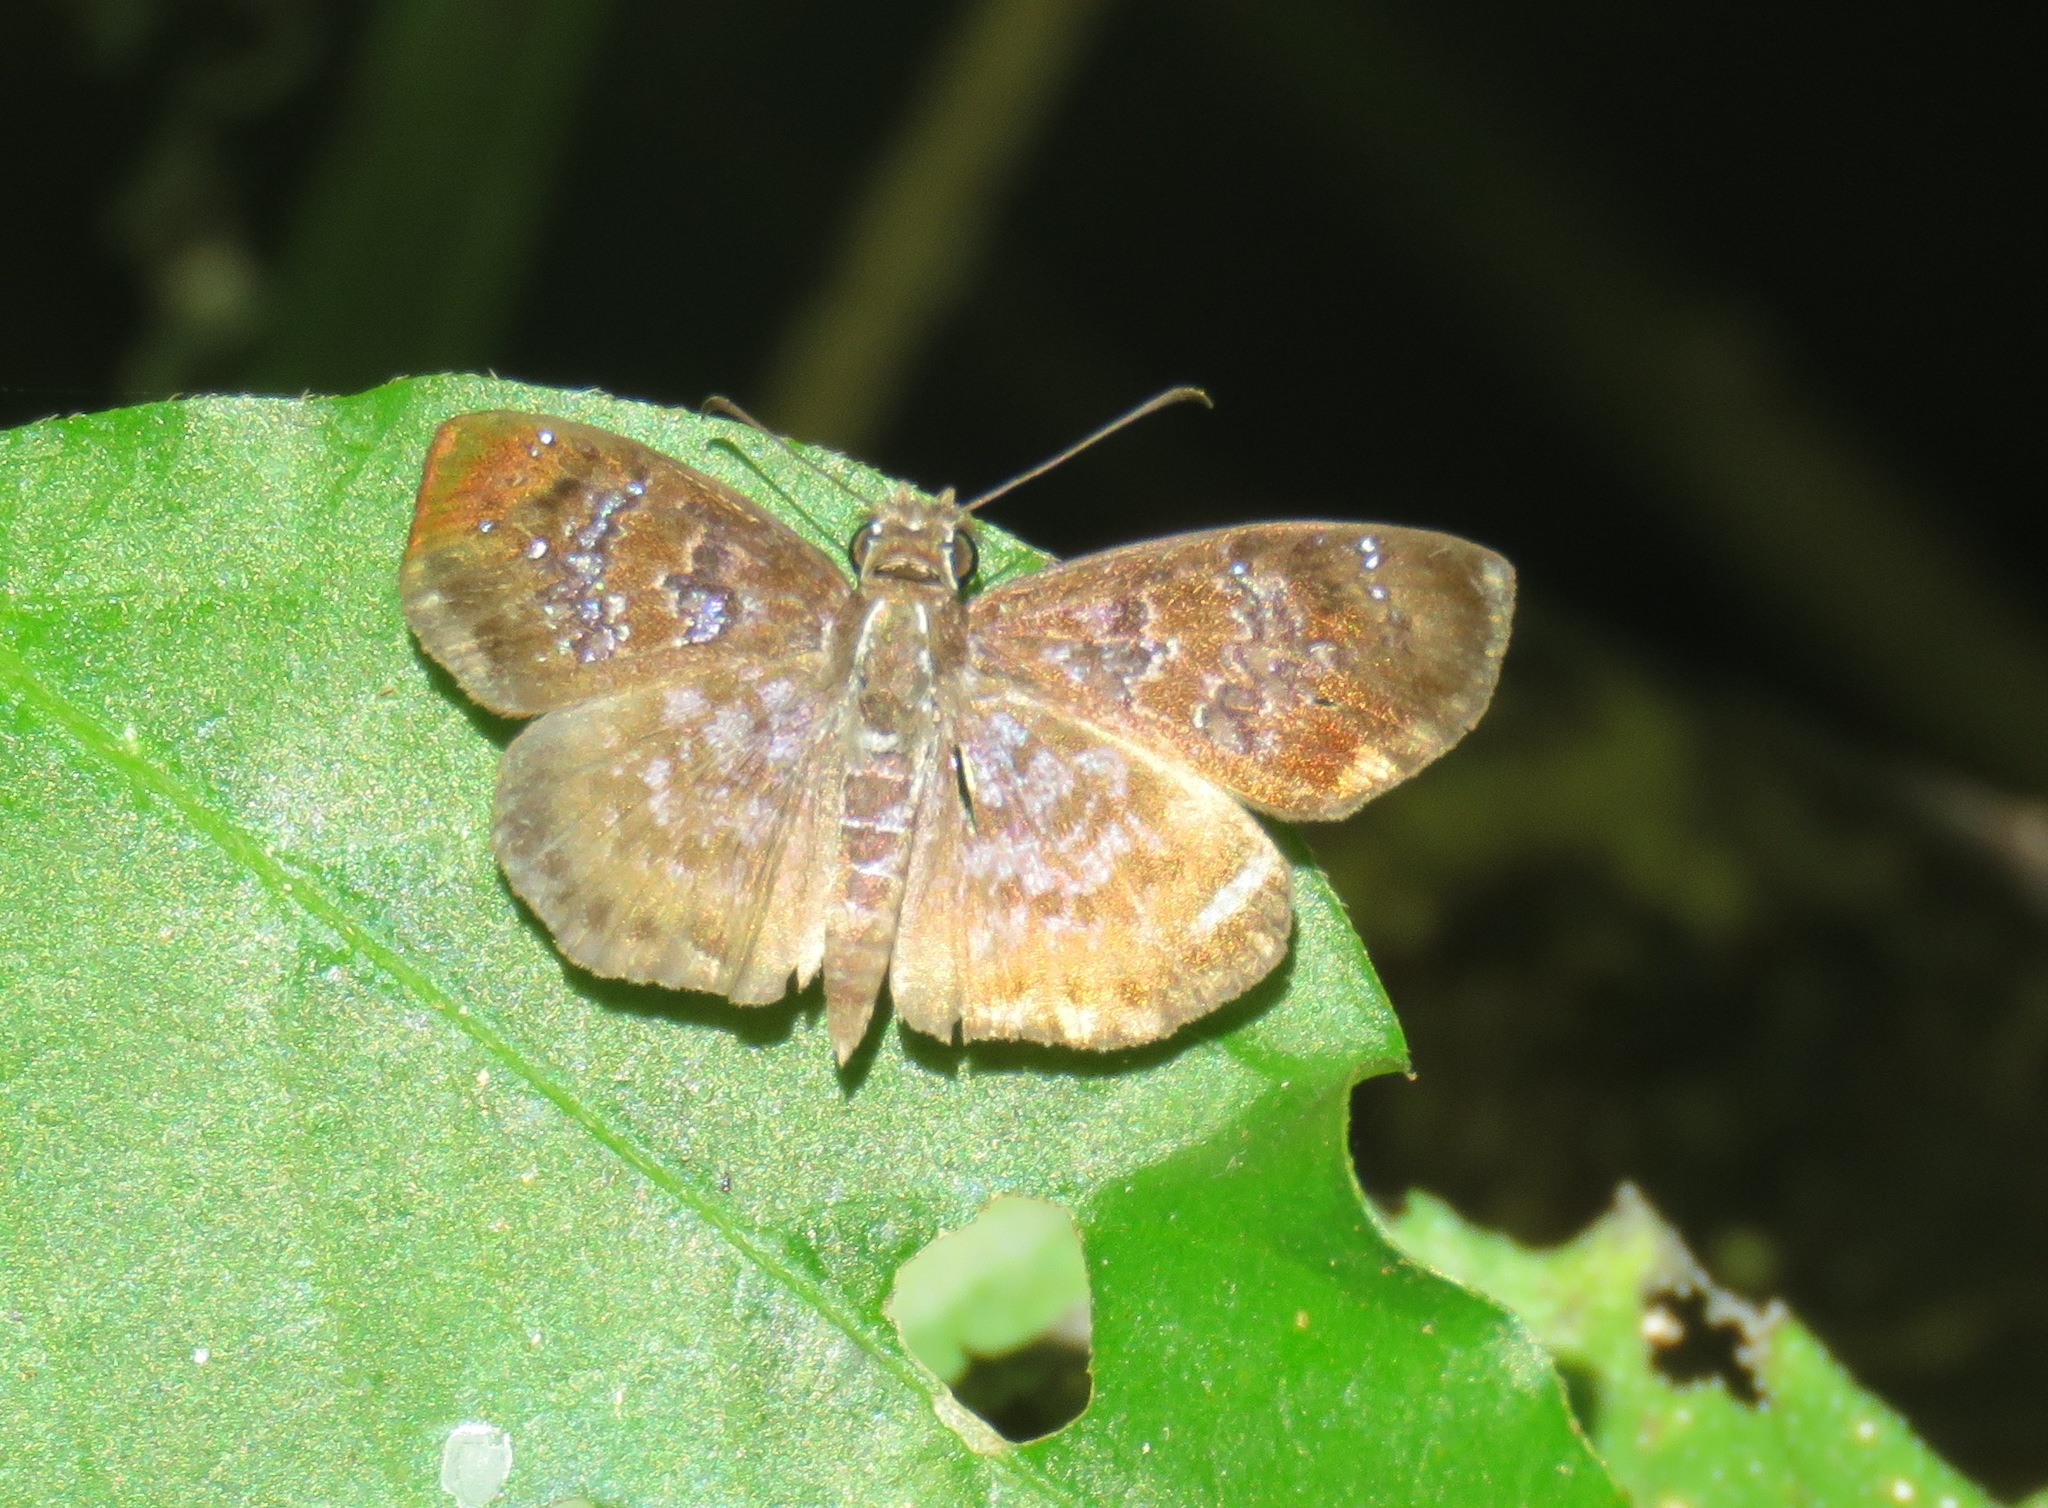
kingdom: Animalia
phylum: Arthropoda
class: Insecta
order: Lepidoptera
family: Hesperiidae
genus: Sophista
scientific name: Sophista bifasciata
